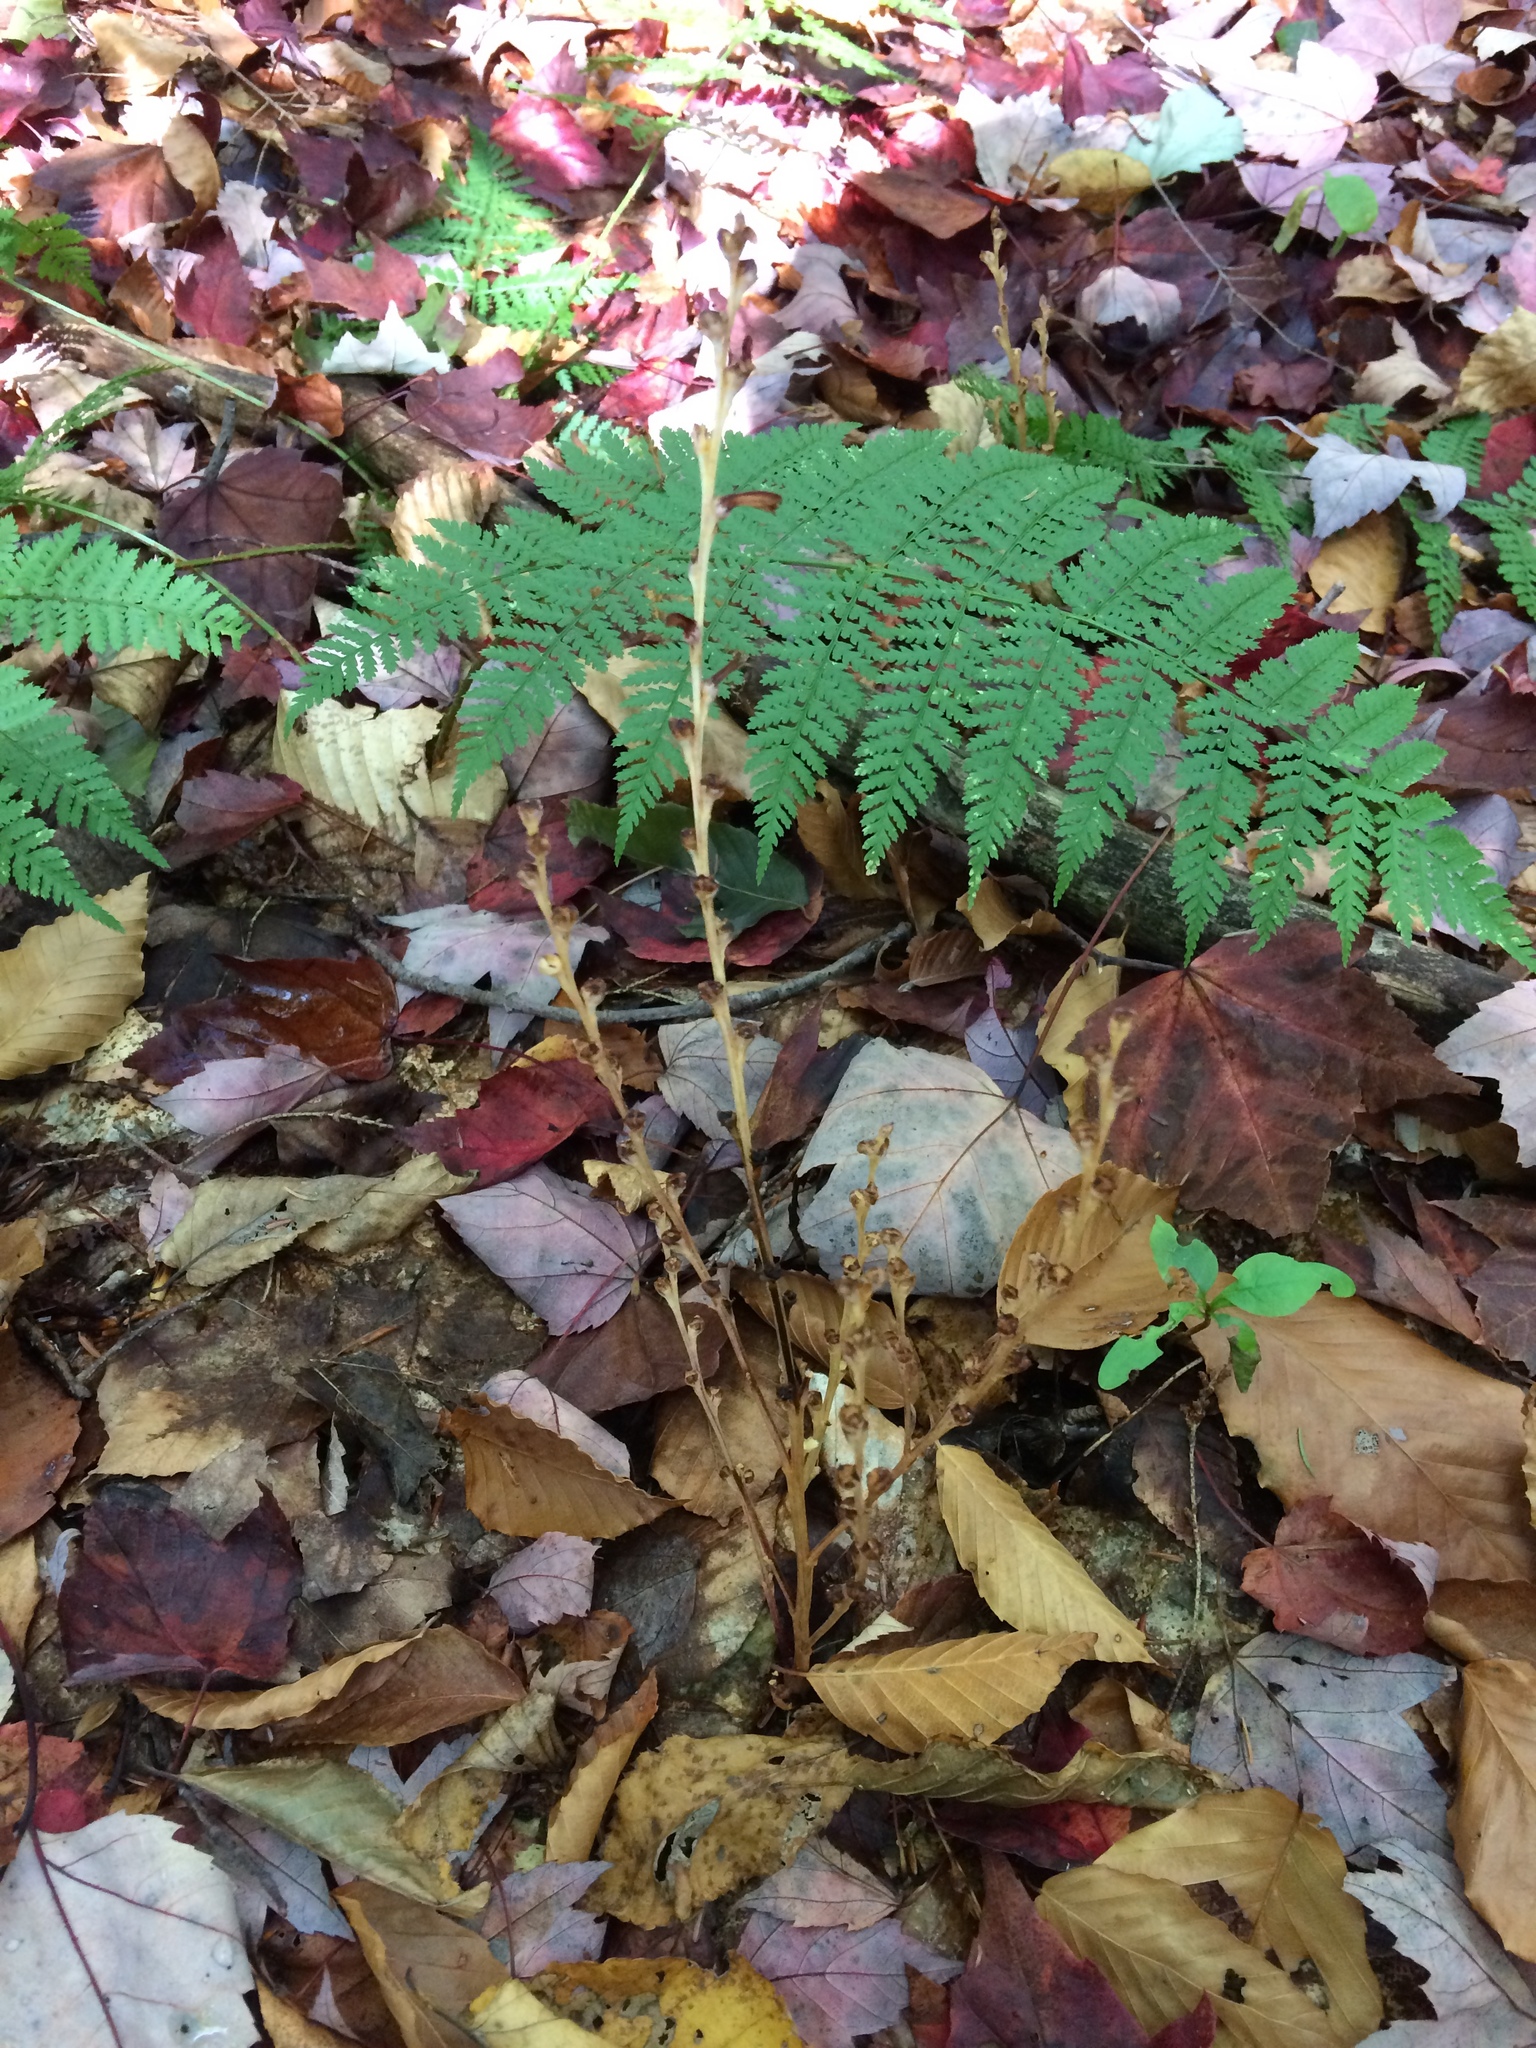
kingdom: Plantae
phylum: Tracheophyta
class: Magnoliopsida
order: Lamiales
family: Orobanchaceae
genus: Epifagus
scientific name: Epifagus virginiana
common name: Beechdrops
